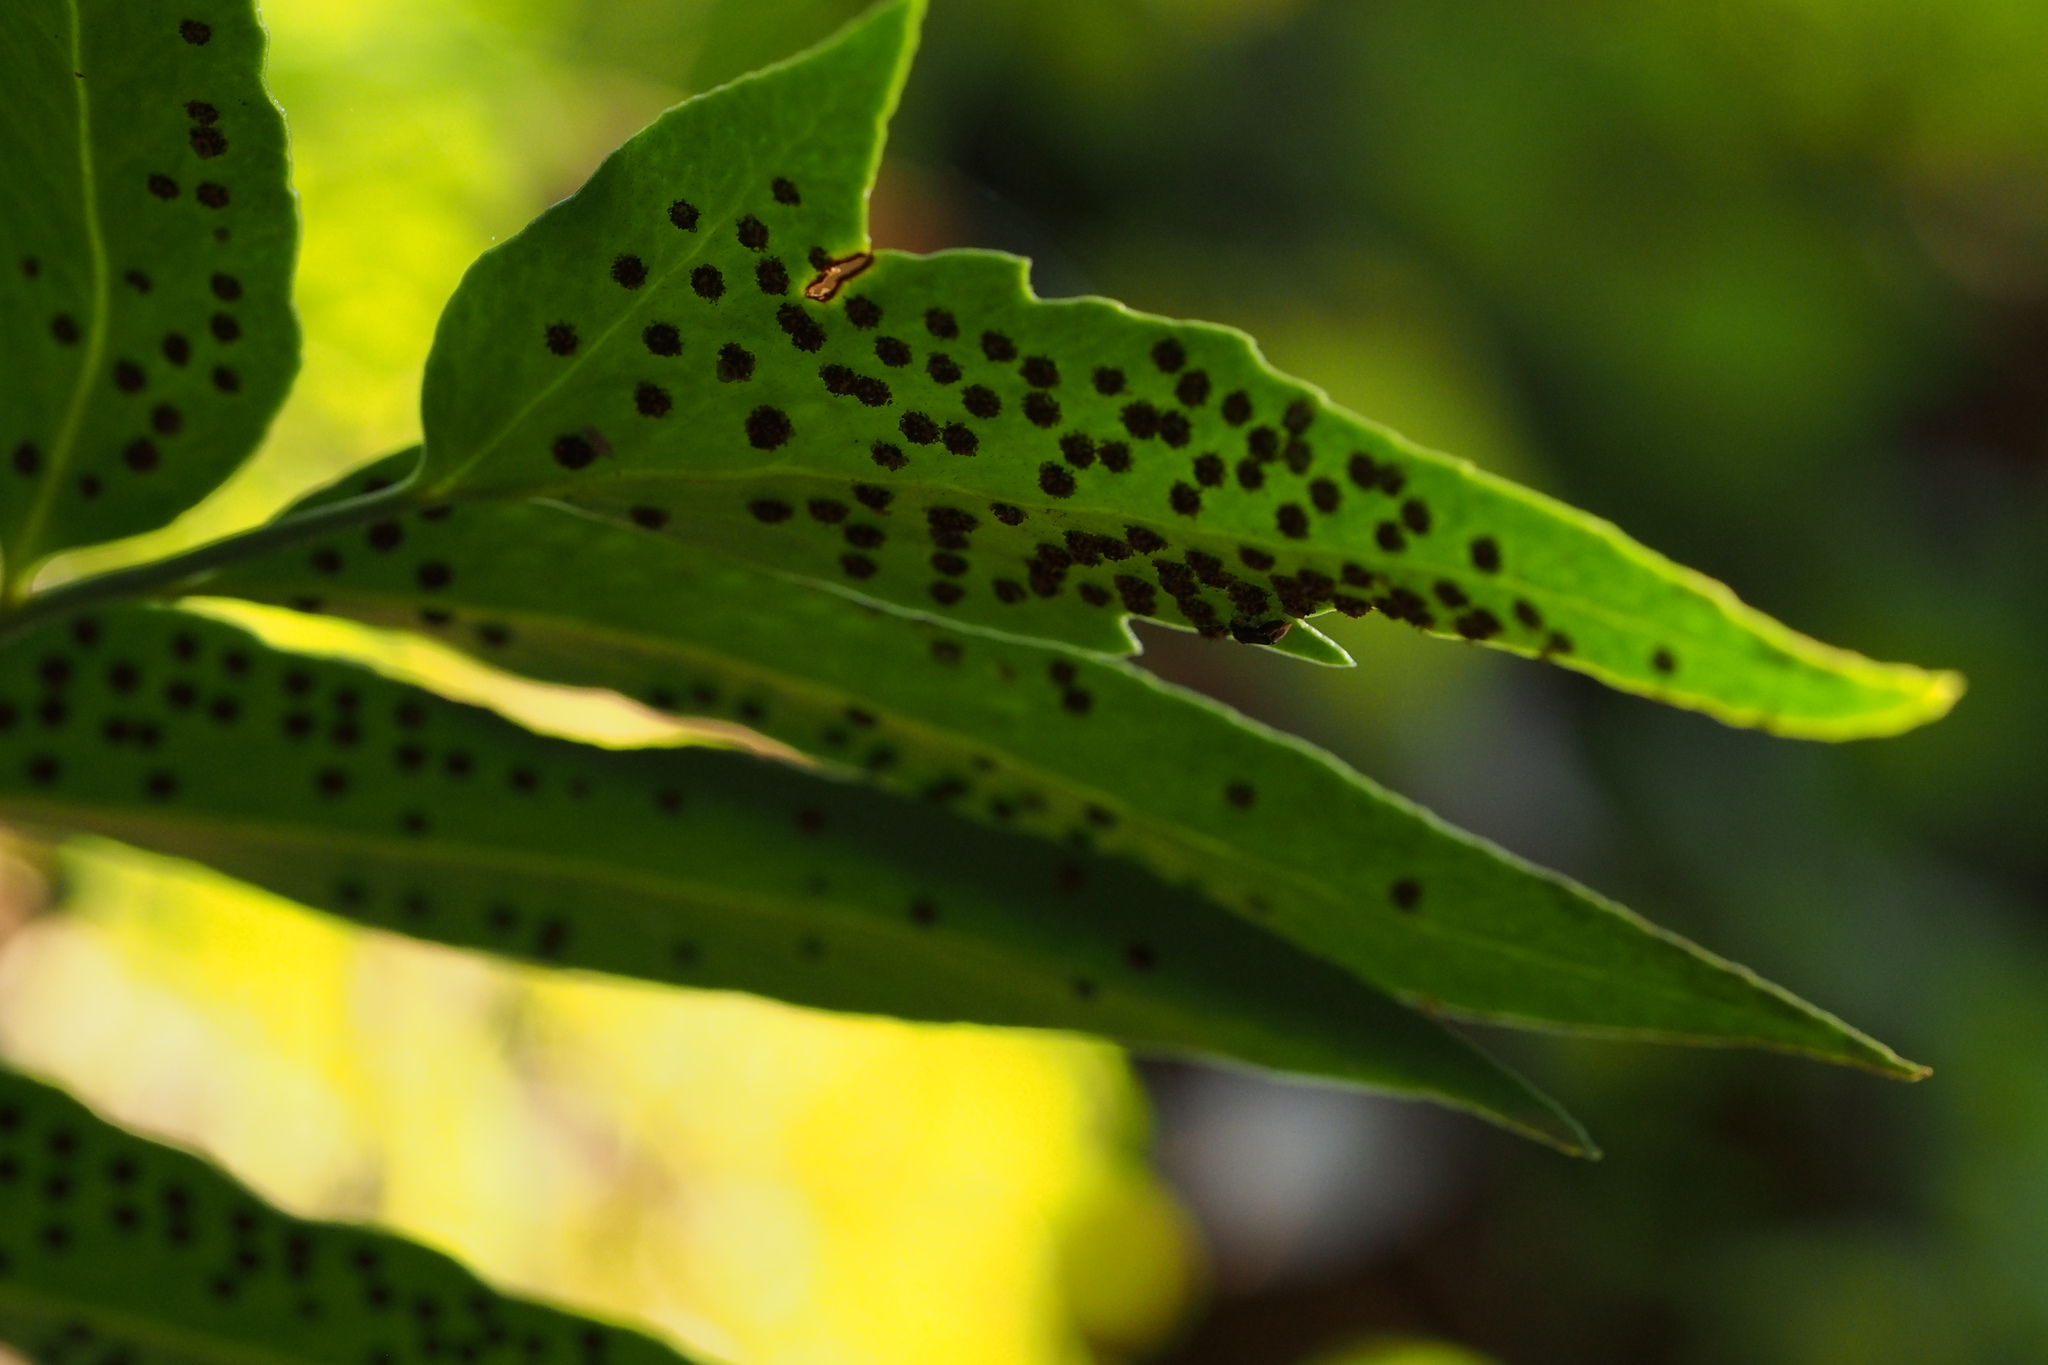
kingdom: Plantae
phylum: Tracheophyta
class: Polypodiopsida
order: Polypodiales
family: Dryopteridaceae
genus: Cyrtomium
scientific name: Cyrtomium falcatum
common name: House holly-fern
